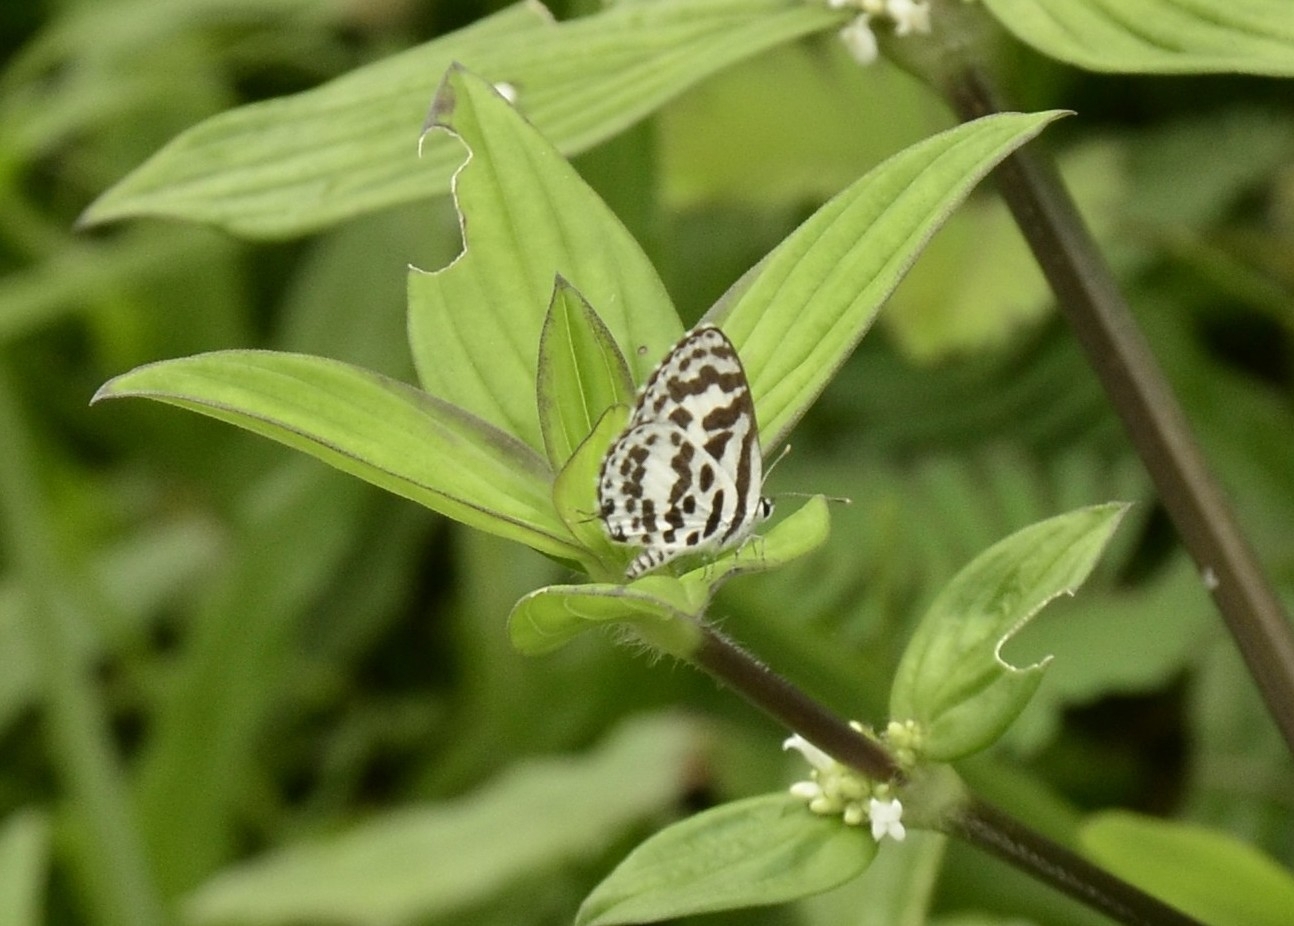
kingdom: Animalia
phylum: Arthropoda
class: Insecta
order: Lepidoptera
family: Lycaenidae
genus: Castalius
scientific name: Castalius rosimon
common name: Common pierrot
